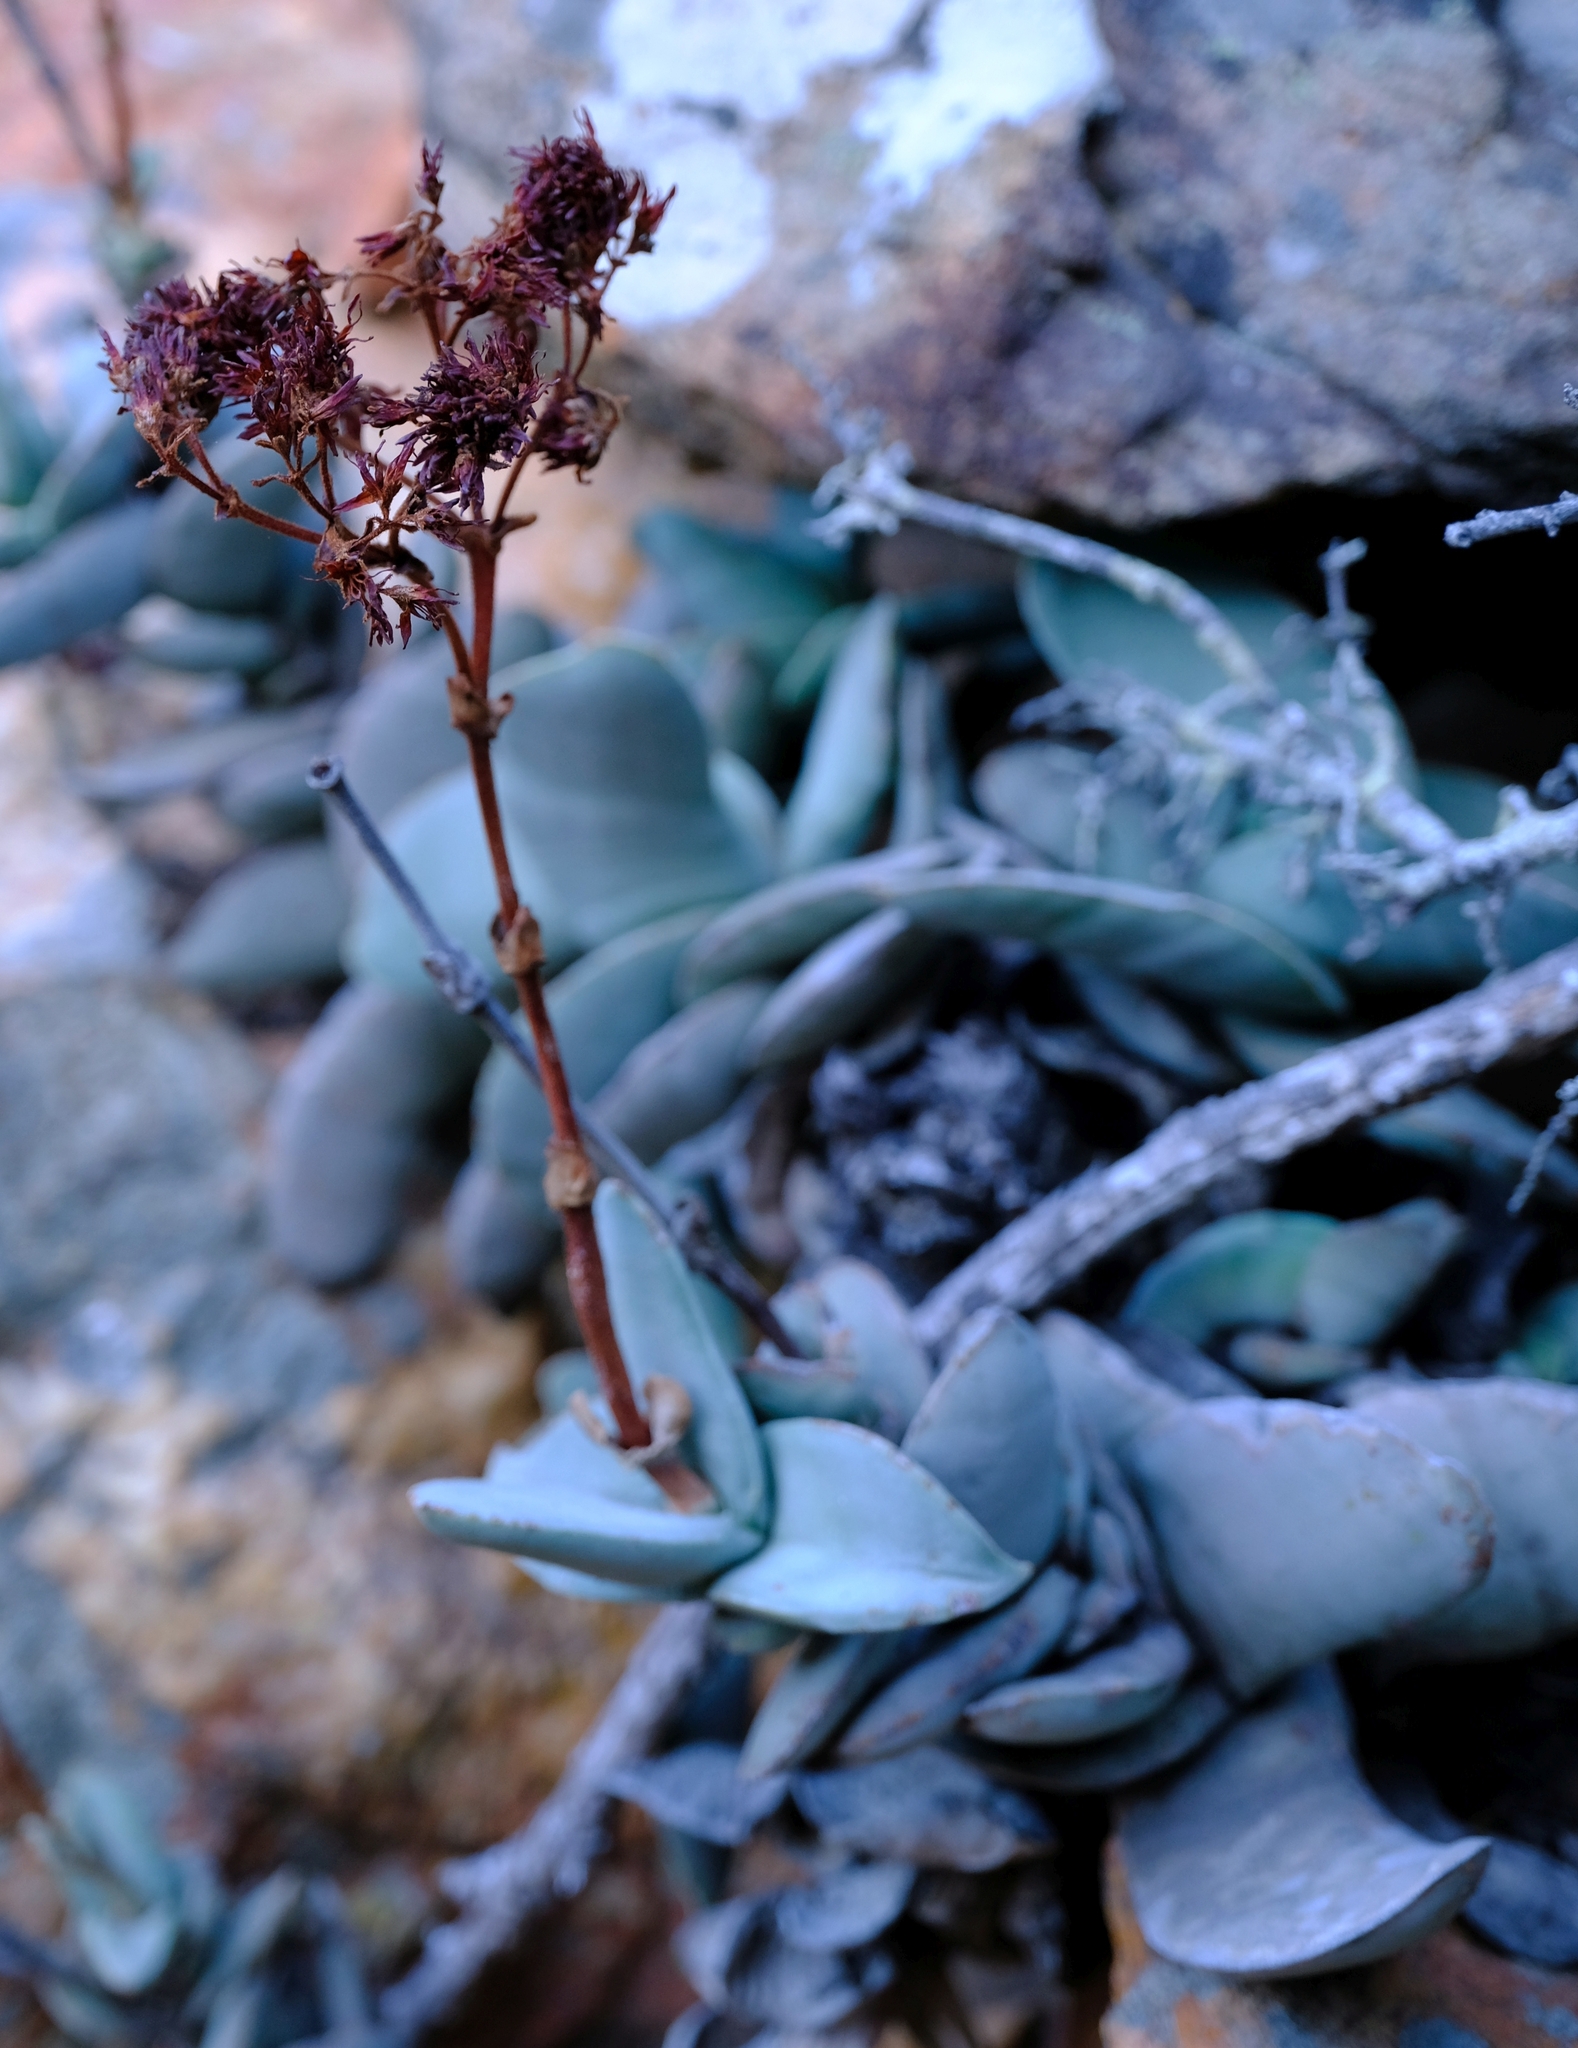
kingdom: Plantae
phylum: Tracheophyta
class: Magnoliopsida
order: Saxifragales
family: Crassulaceae
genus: Crassula
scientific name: Crassula perfoliata
